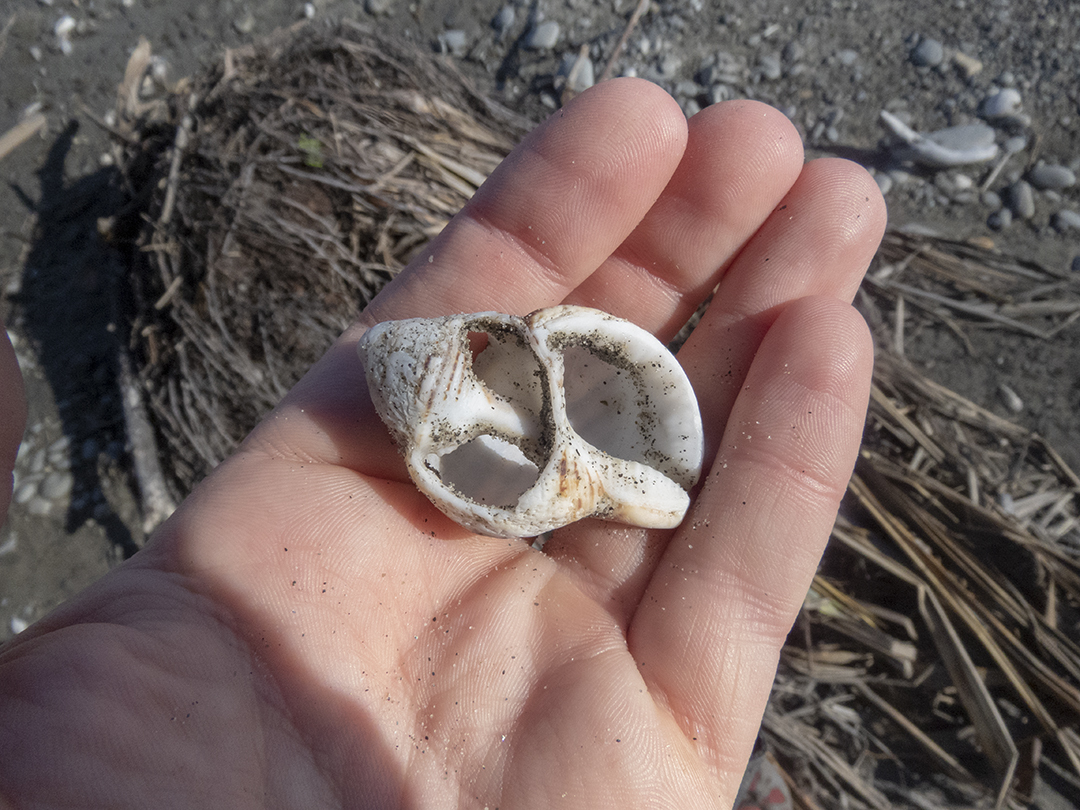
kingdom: Animalia
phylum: Mollusca
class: Gastropoda
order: Littorinimorpha
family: Cymatiidae
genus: Argobuccinum
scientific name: Argobuccinum pustulosum
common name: Pustular triton
